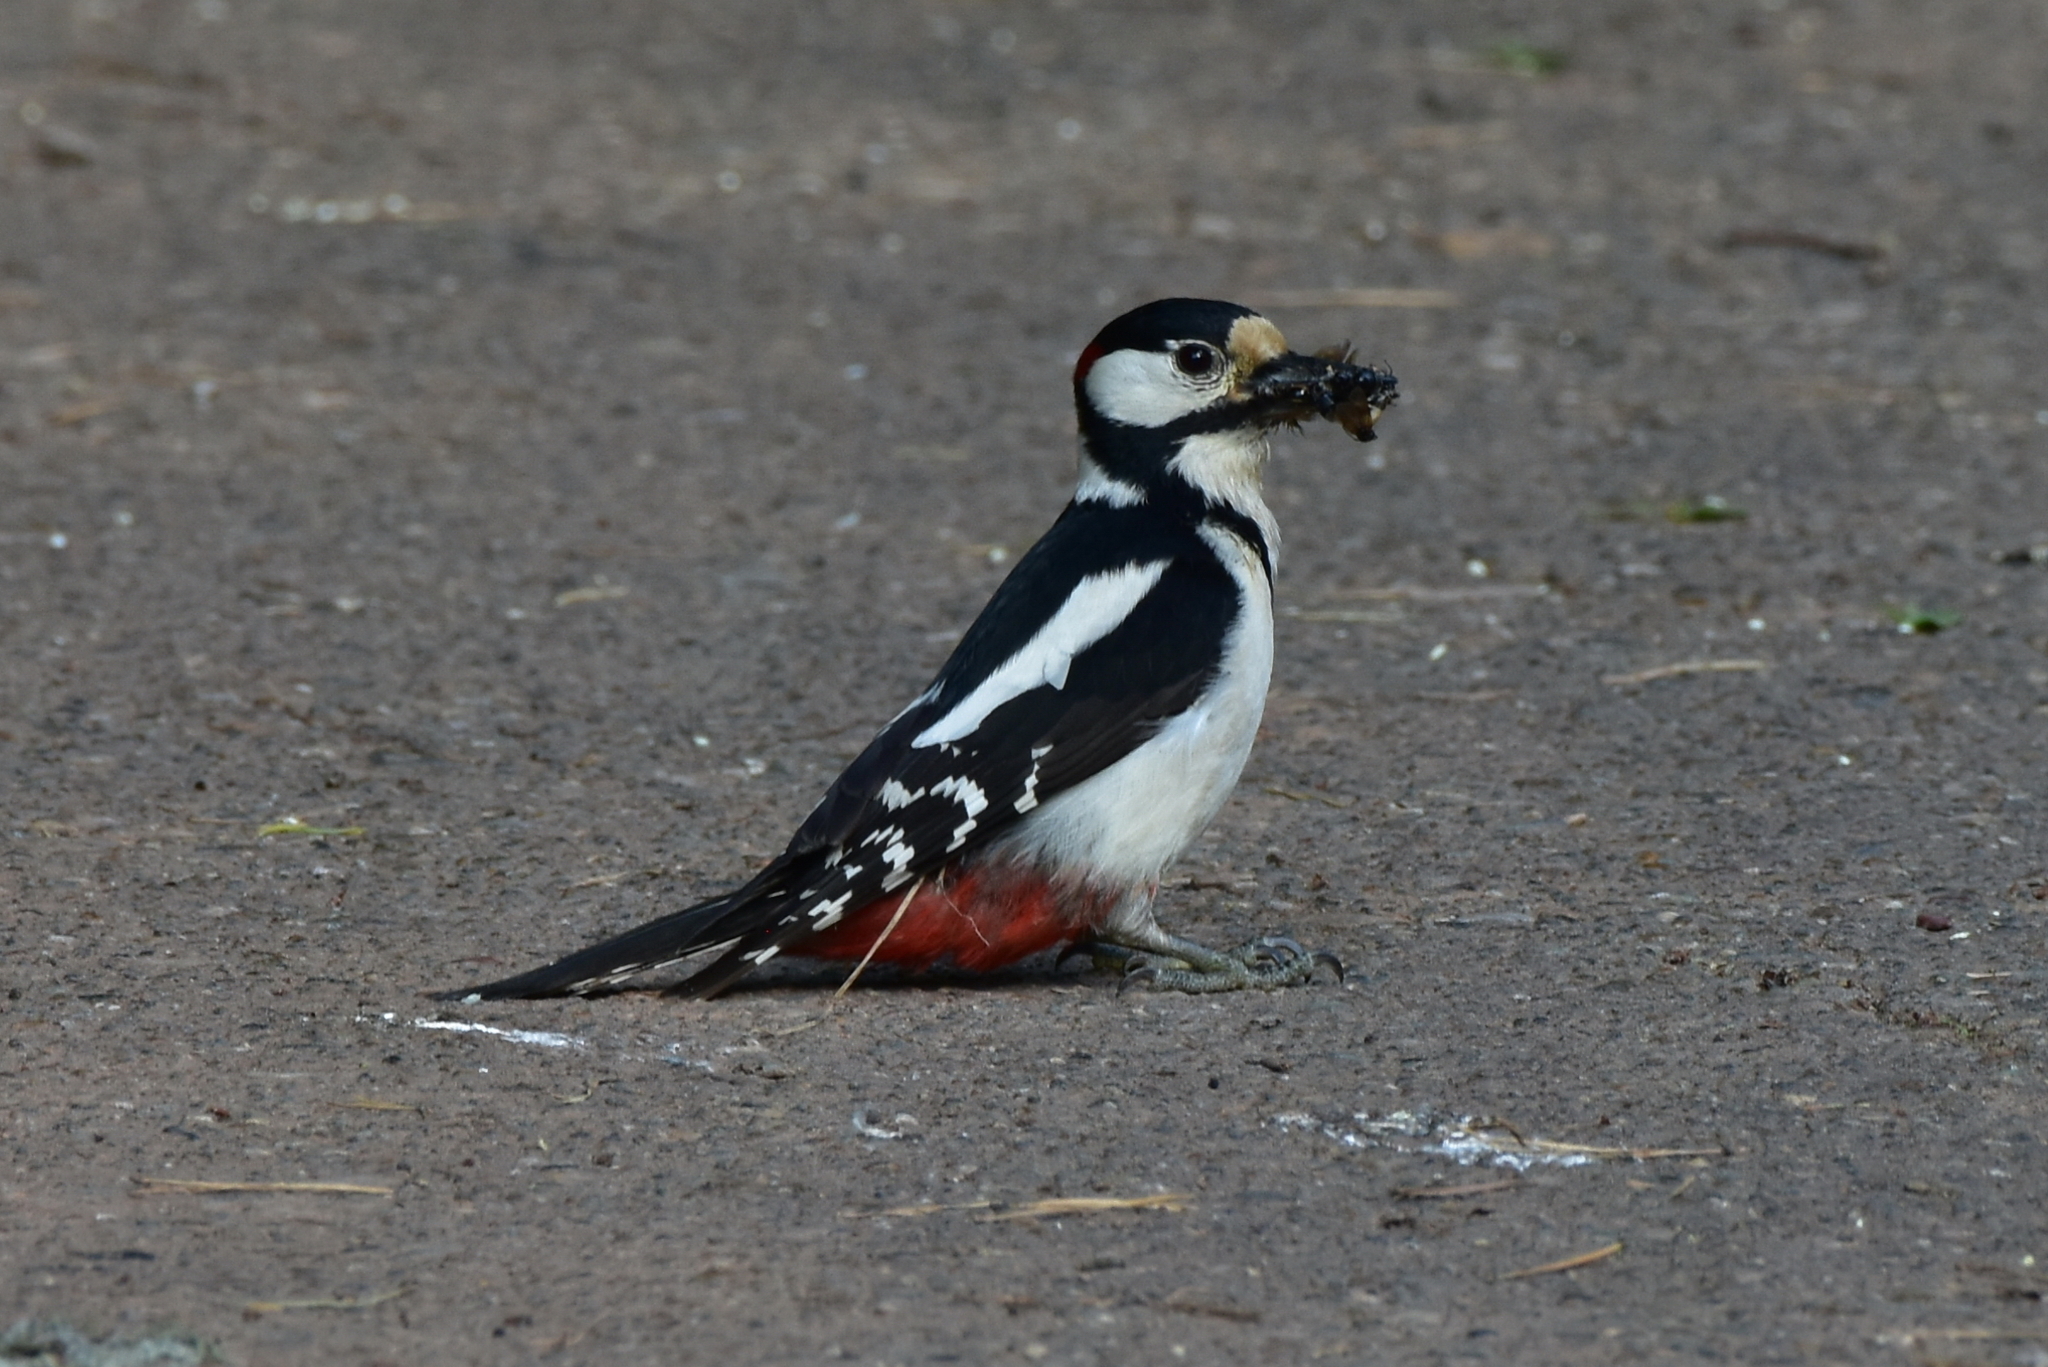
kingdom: Animalia
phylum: Chordata
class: Aves
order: Piciformes
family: Picidae
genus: Dendrocopos
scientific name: Dendrocopos major
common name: Great spotted woodpecker
